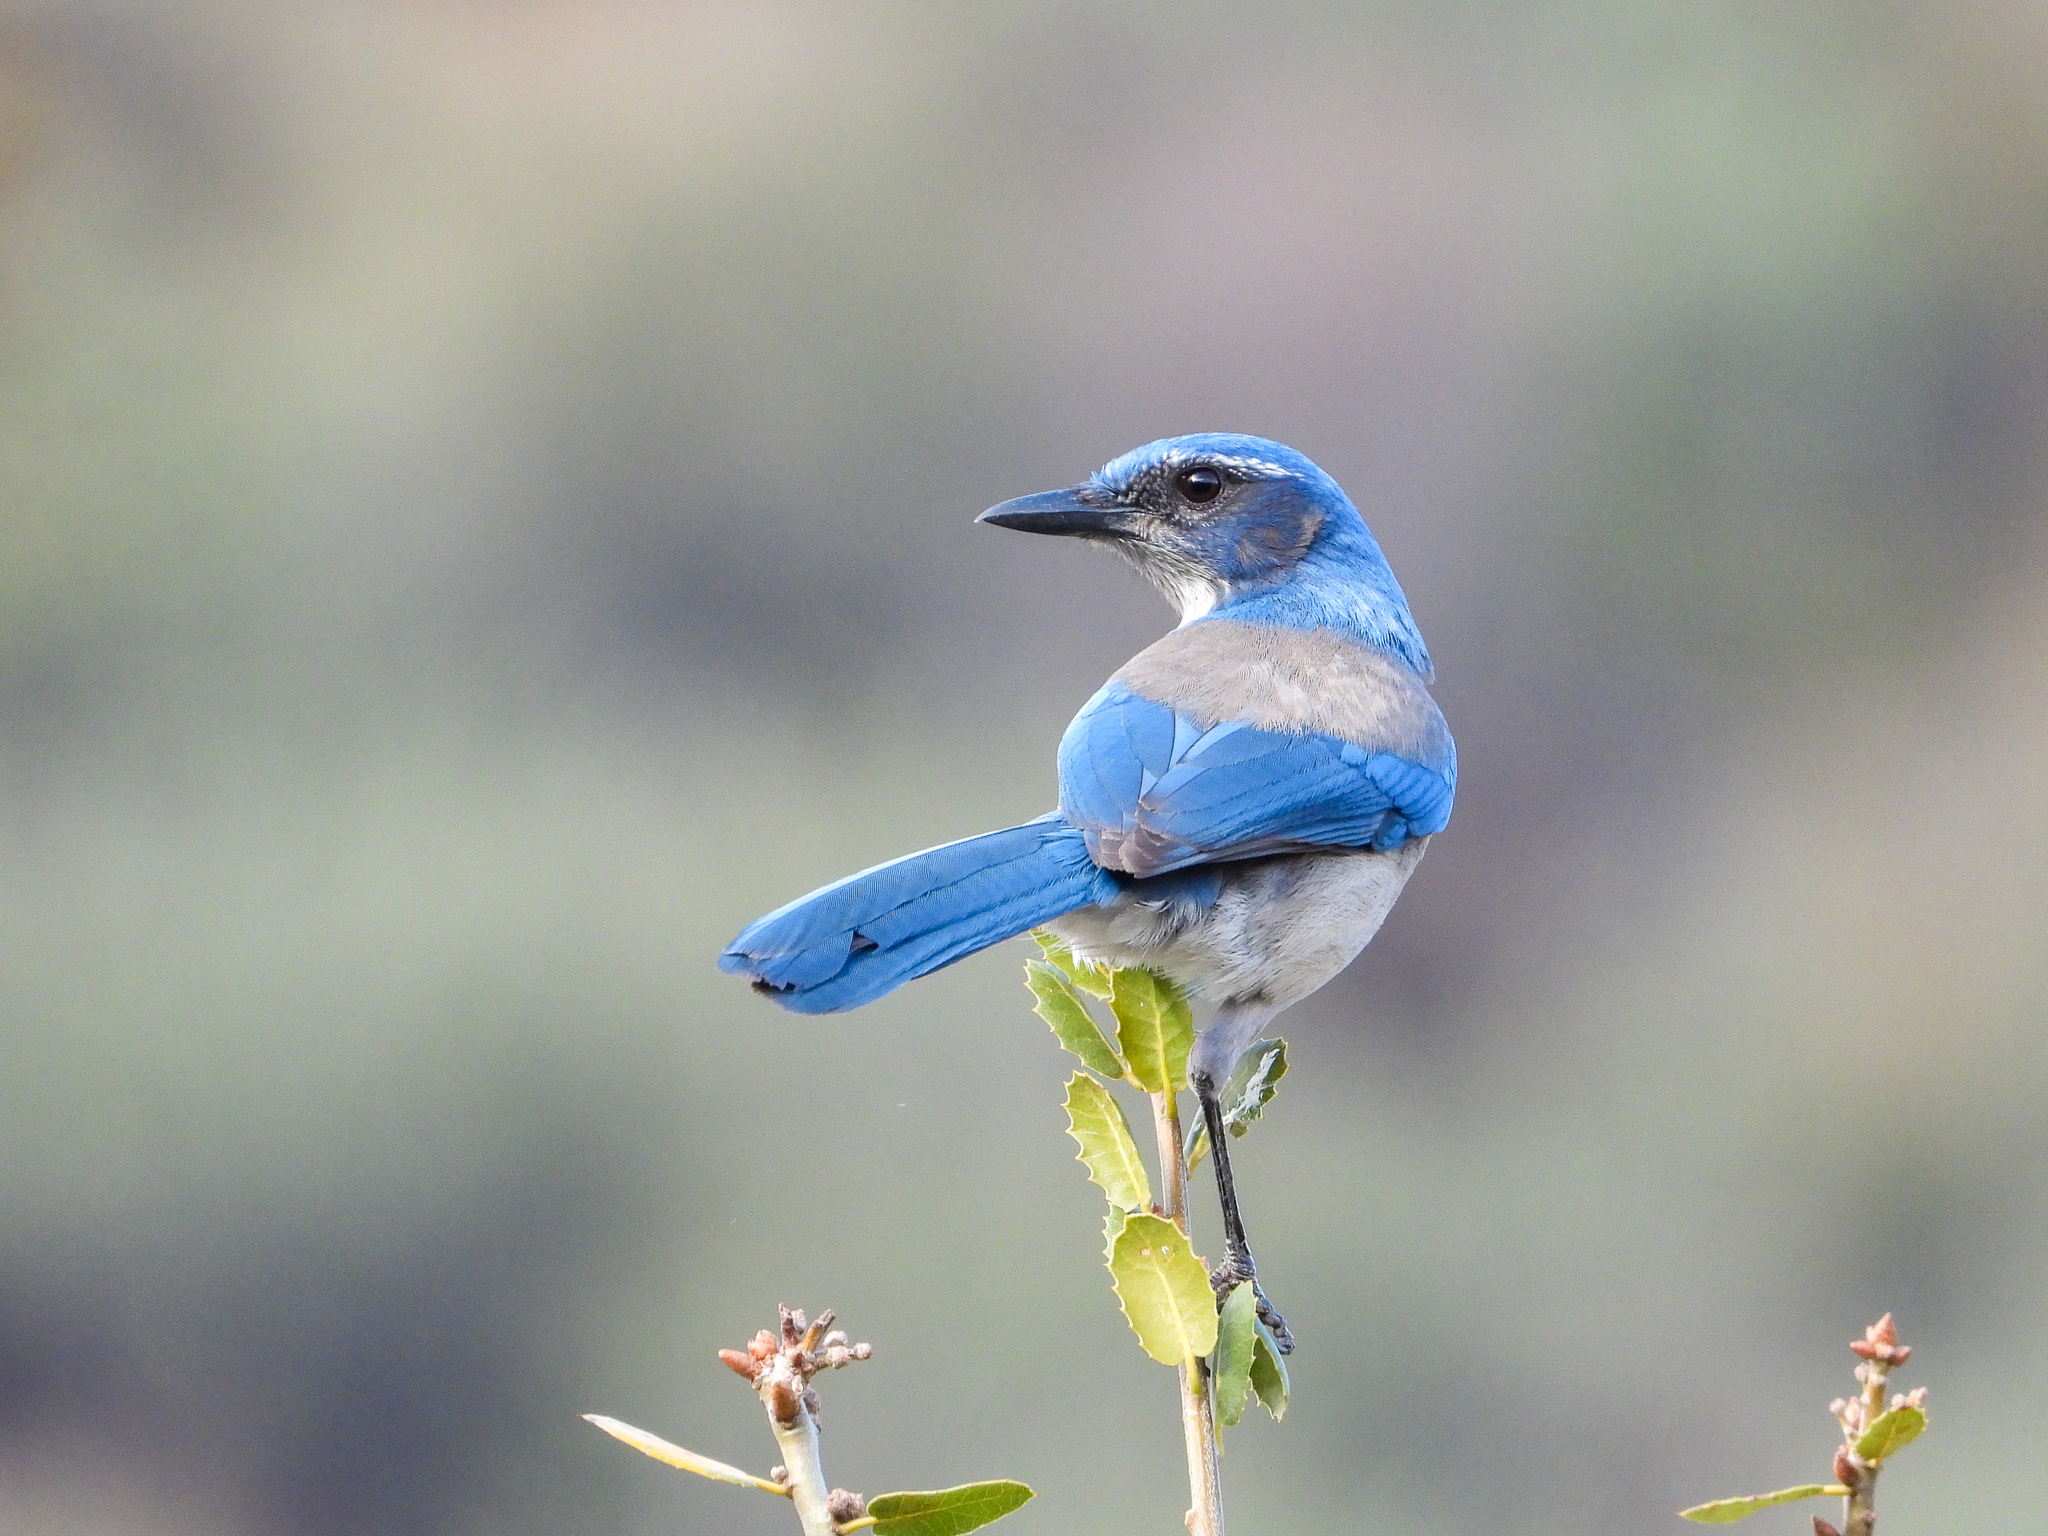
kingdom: Animalia
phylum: Chordata
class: Aves
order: Passeriformes
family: Corvidae
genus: Aphelocoma
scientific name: Aphelocoma californica
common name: California scrub-jay
